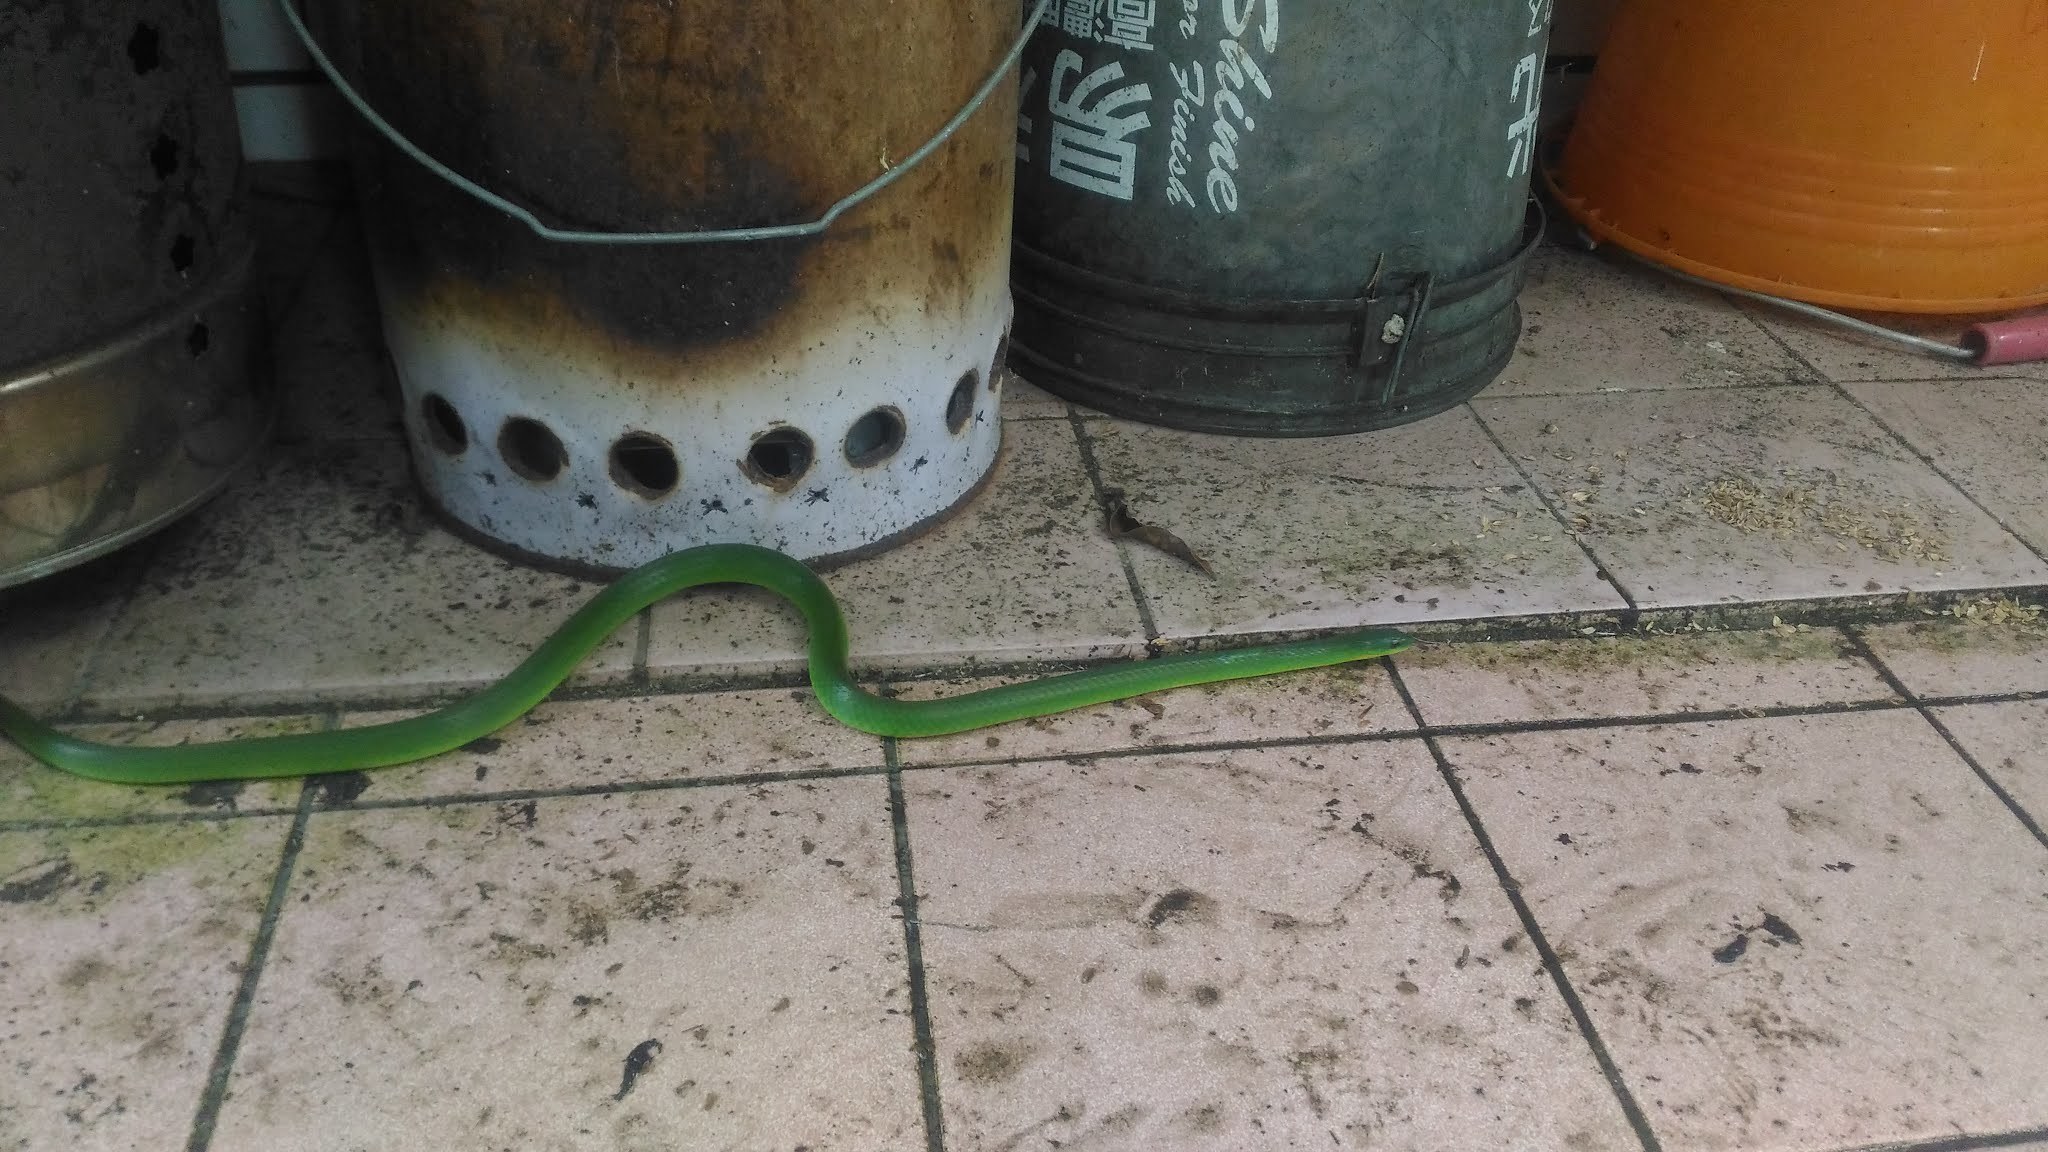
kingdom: Animalia
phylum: Chordata
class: Squamata
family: Colubridae
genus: Ptyas
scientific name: Ptyas major
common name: Chinese green snake
